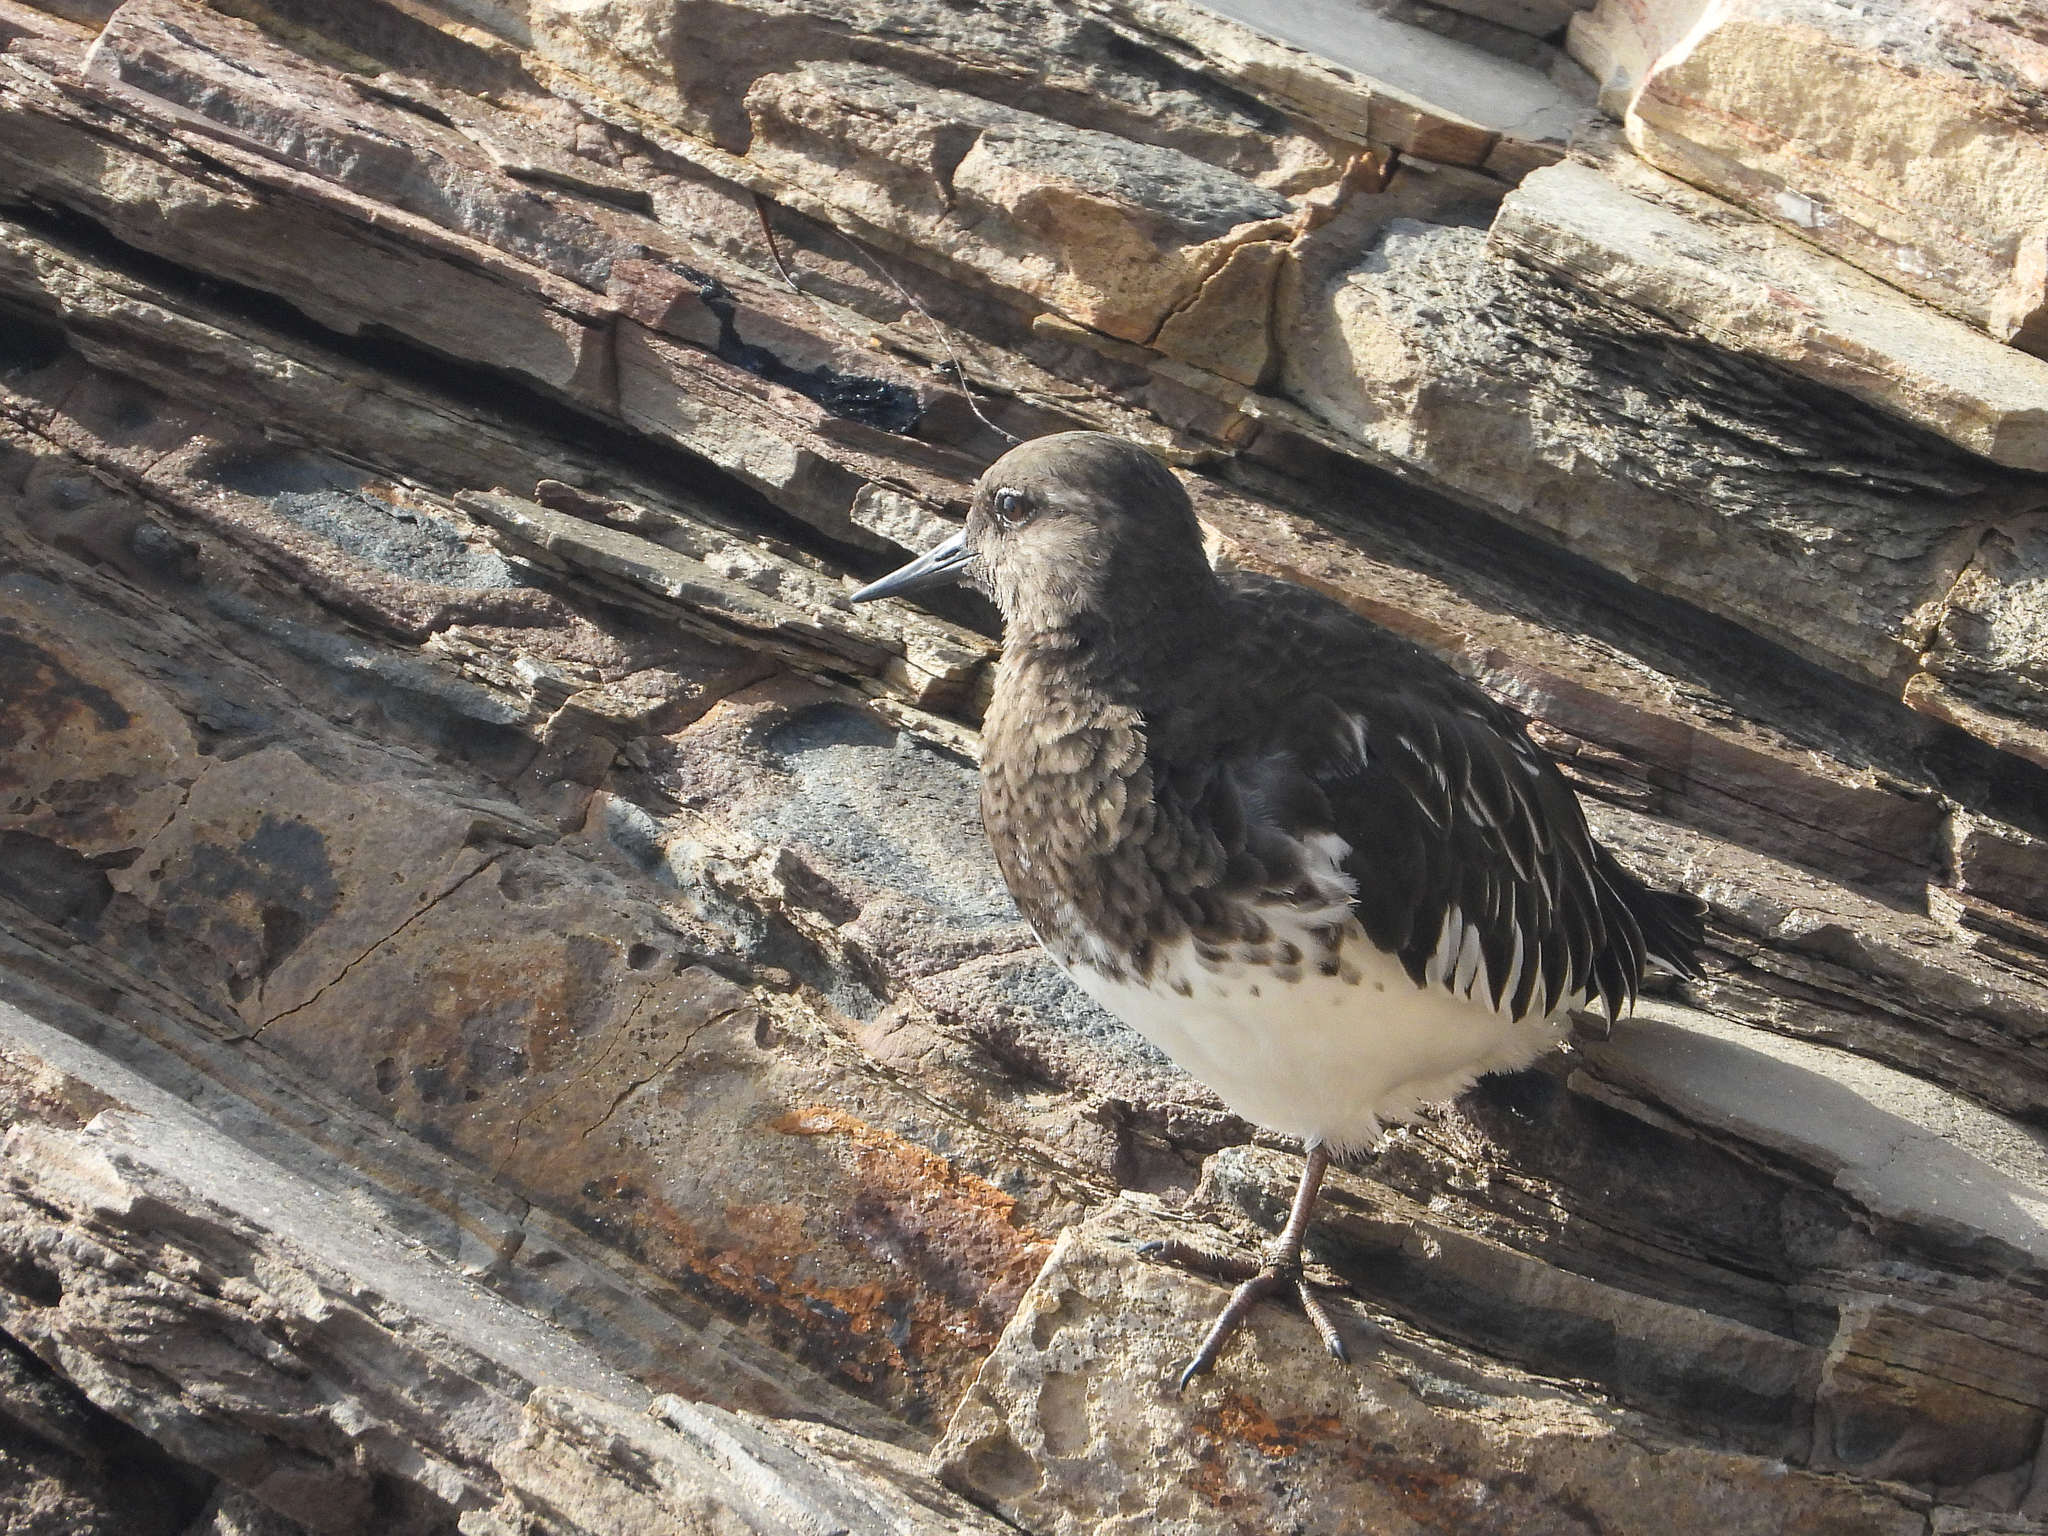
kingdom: Animalia
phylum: Chordata
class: Aves
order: Charadriiformes
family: Scolopacidae
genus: Arenaria
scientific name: Arenaria melanocephala
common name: Black turnstone
